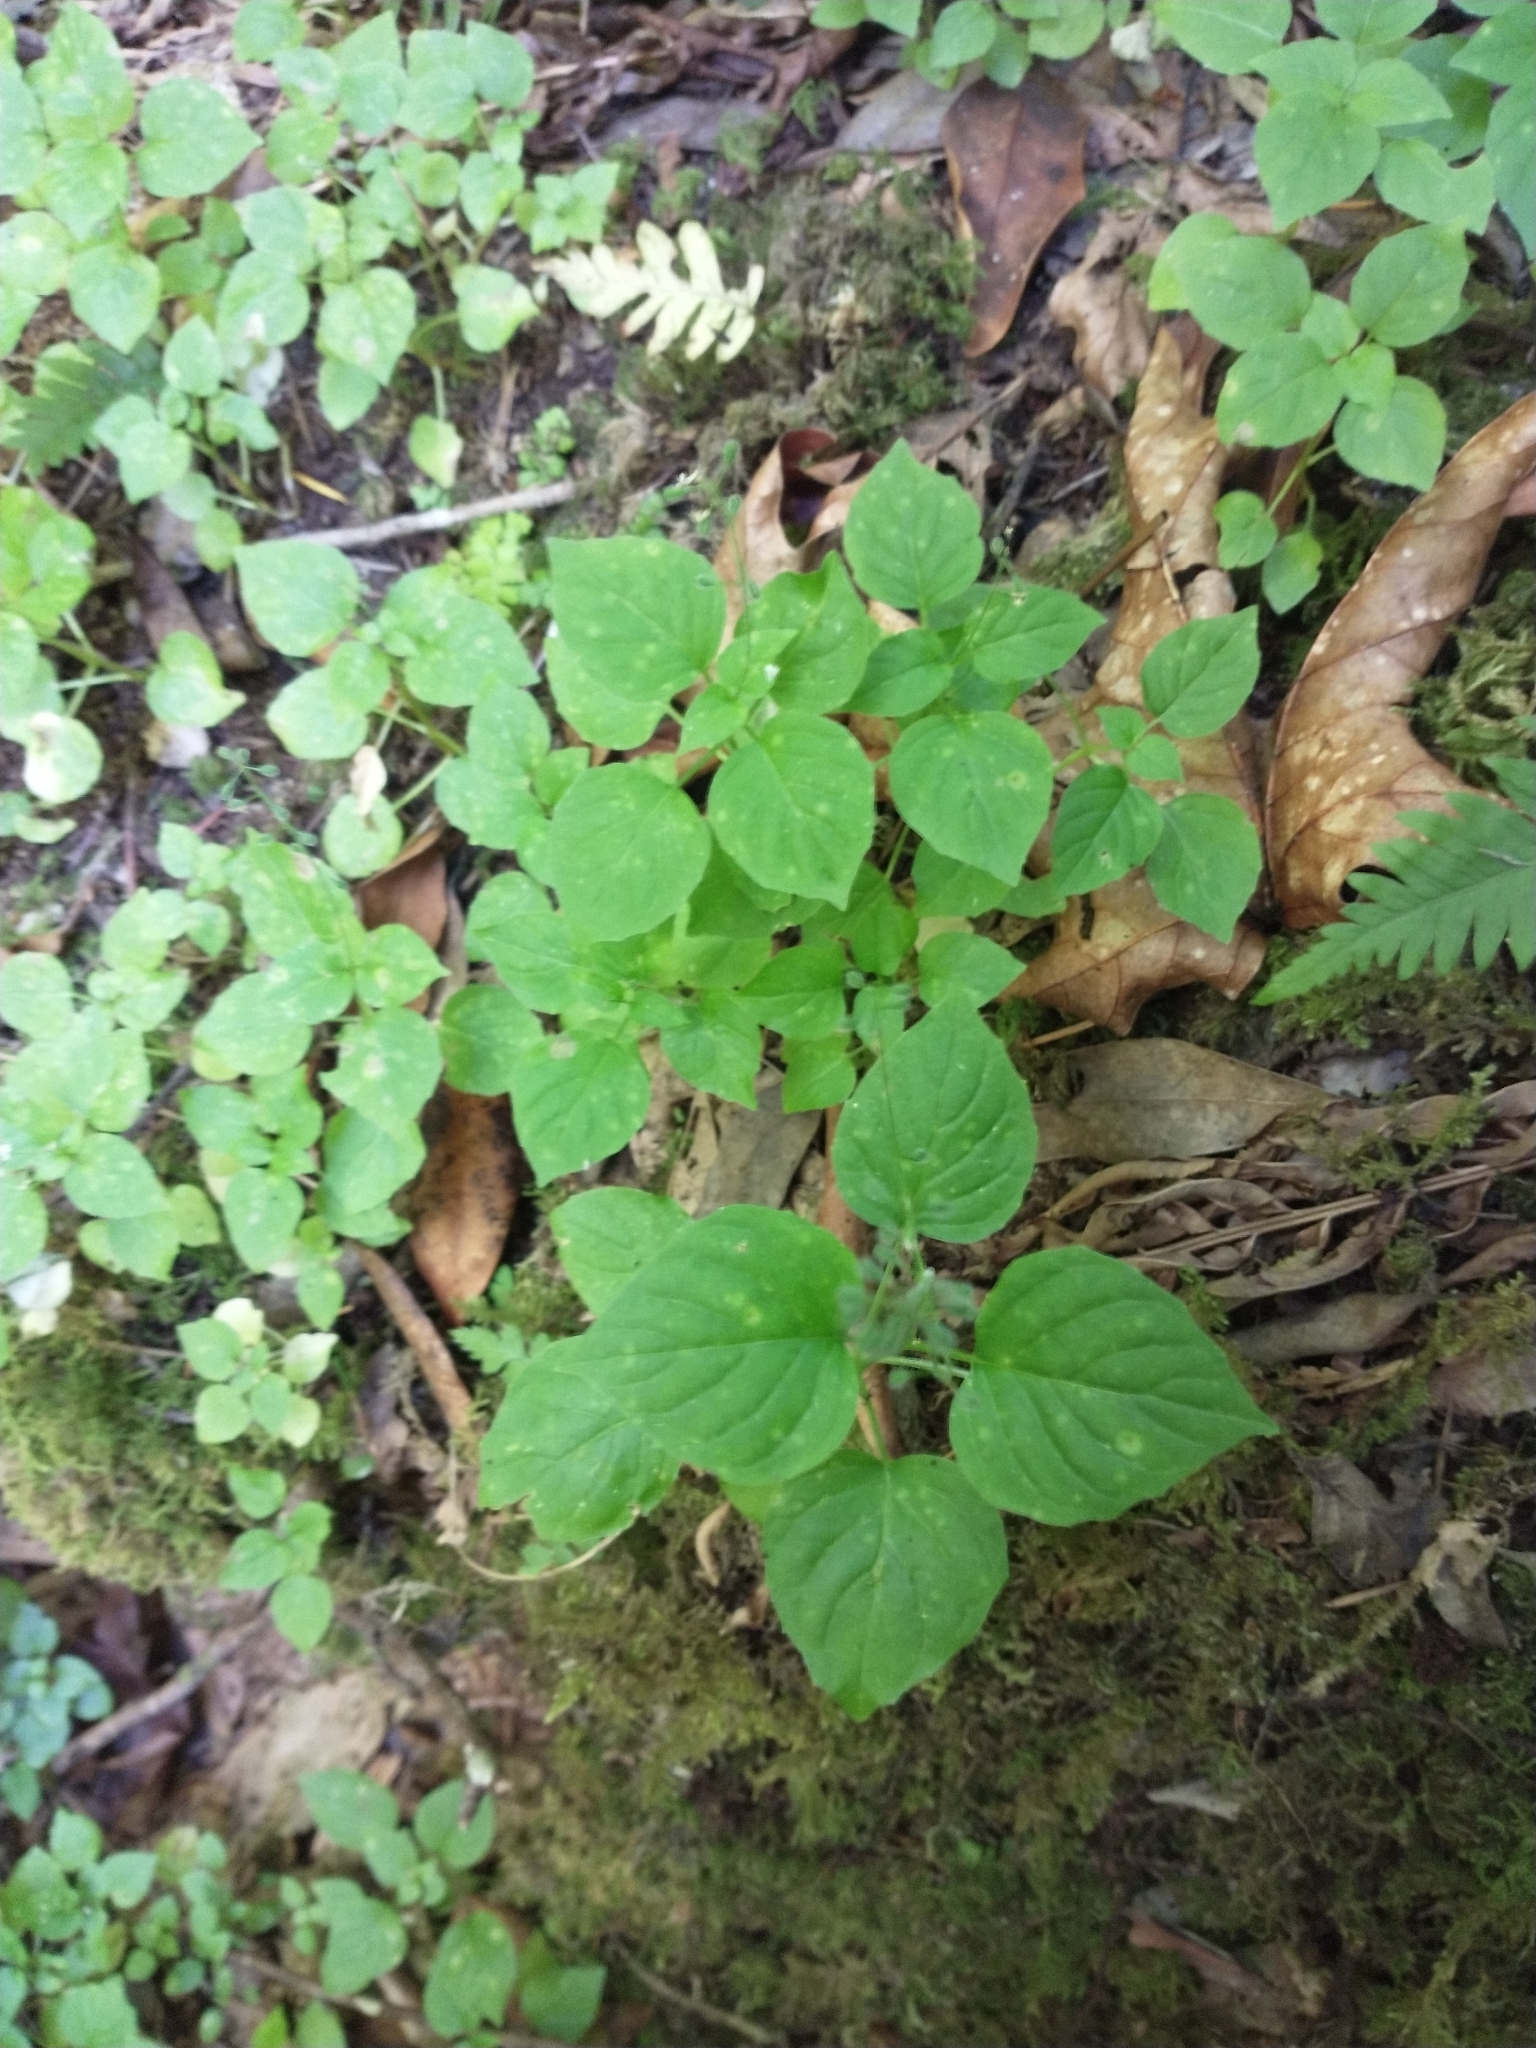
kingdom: Plantae
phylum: Tracheophyta
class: Magnoliopsida
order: Myrtales
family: Onagraceae
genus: Circaea
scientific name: Circaea alpina
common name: Alpine enchanter's-nightshade
